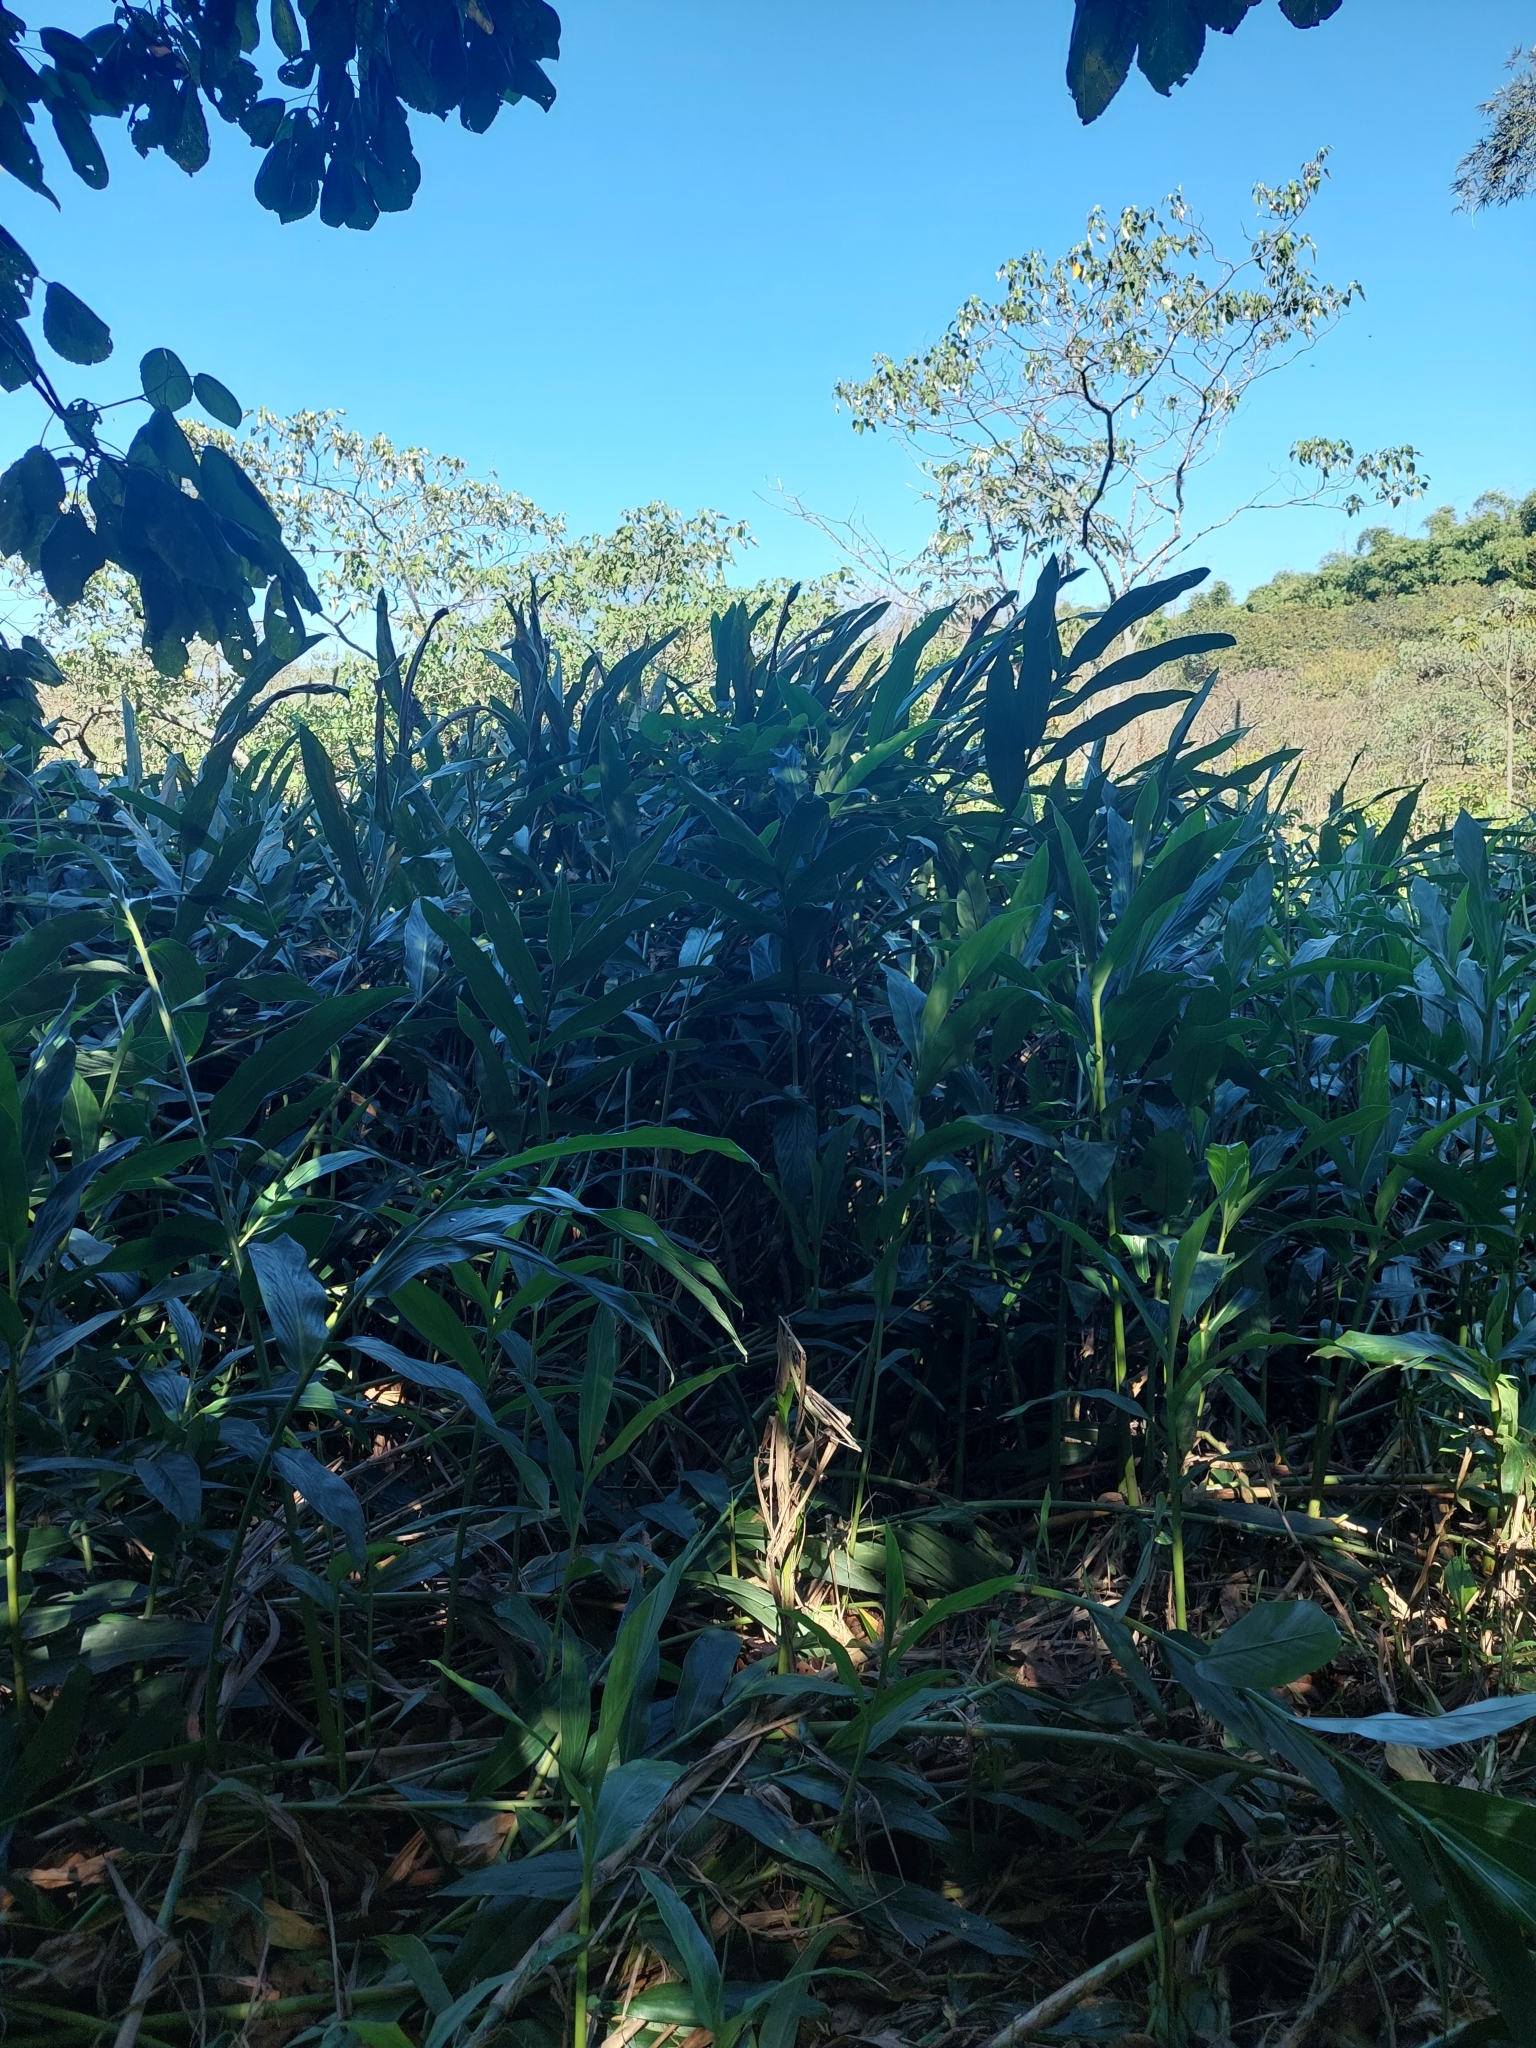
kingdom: Plantae
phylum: Tracheophyta
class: Liliopsida
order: Zingiberales
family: Zingiberaceae
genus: Hedychium
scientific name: Hedychium coronarium
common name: White garland-lily
